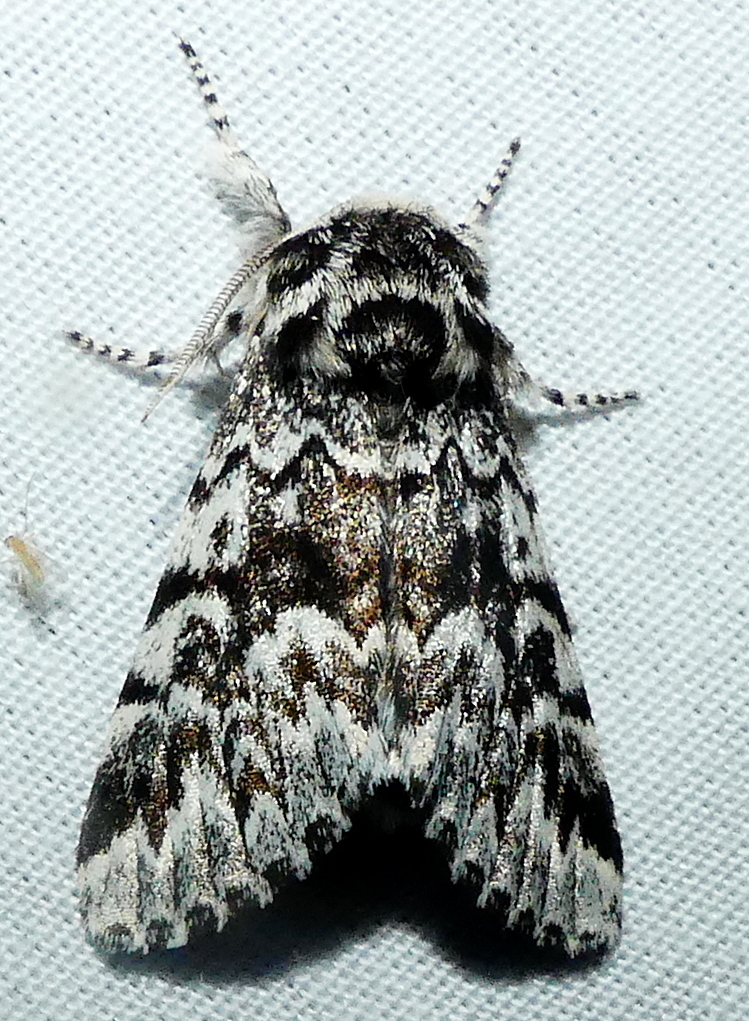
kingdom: Animalia
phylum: Arthropoda
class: Insecta
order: Lepidoptera
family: Noctuidae
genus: Panthea
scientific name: Panthea acronyctoides
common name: Black zigzag moth
